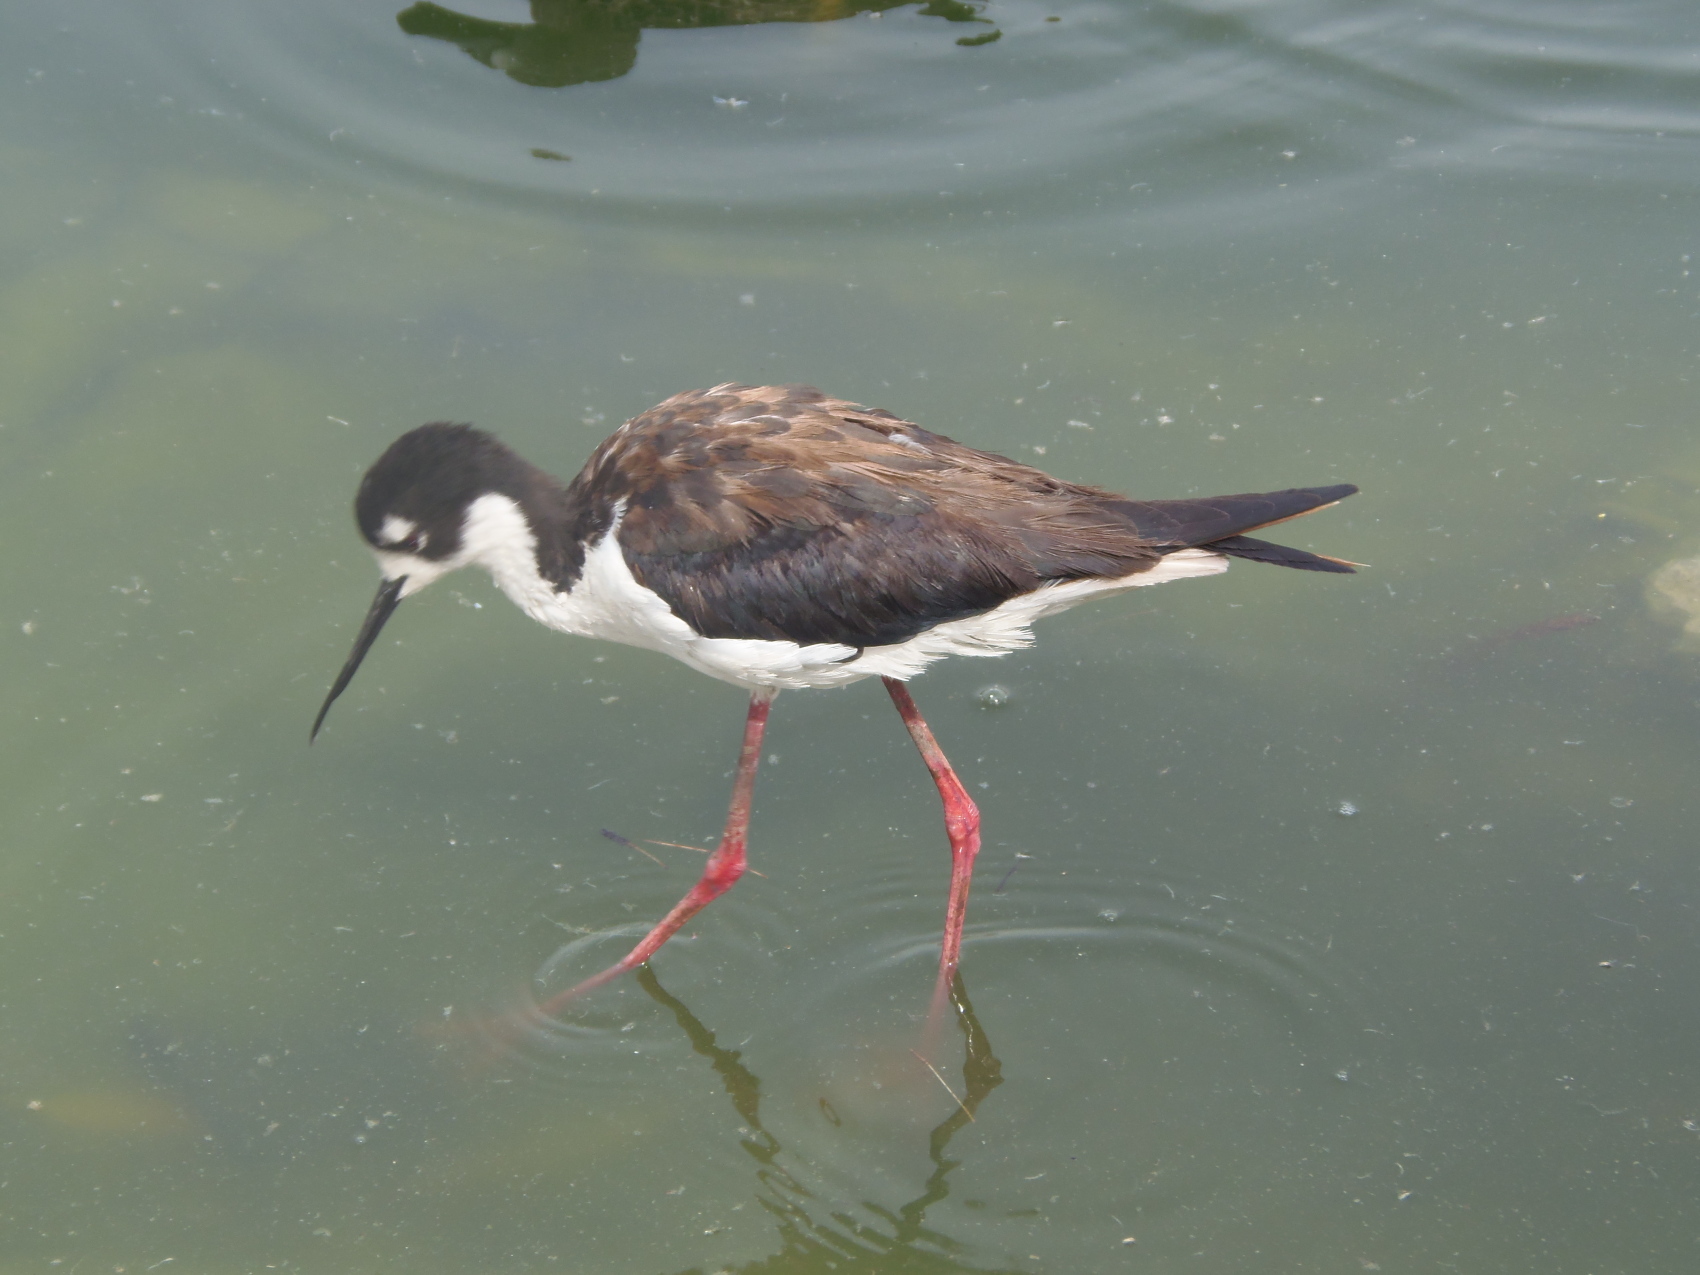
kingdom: Animalia
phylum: Chordata
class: Aves
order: Charadriiformes
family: Recurvirostridae
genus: Himantopus
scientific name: Himantopus mexicanus
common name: Black-necked stilt
